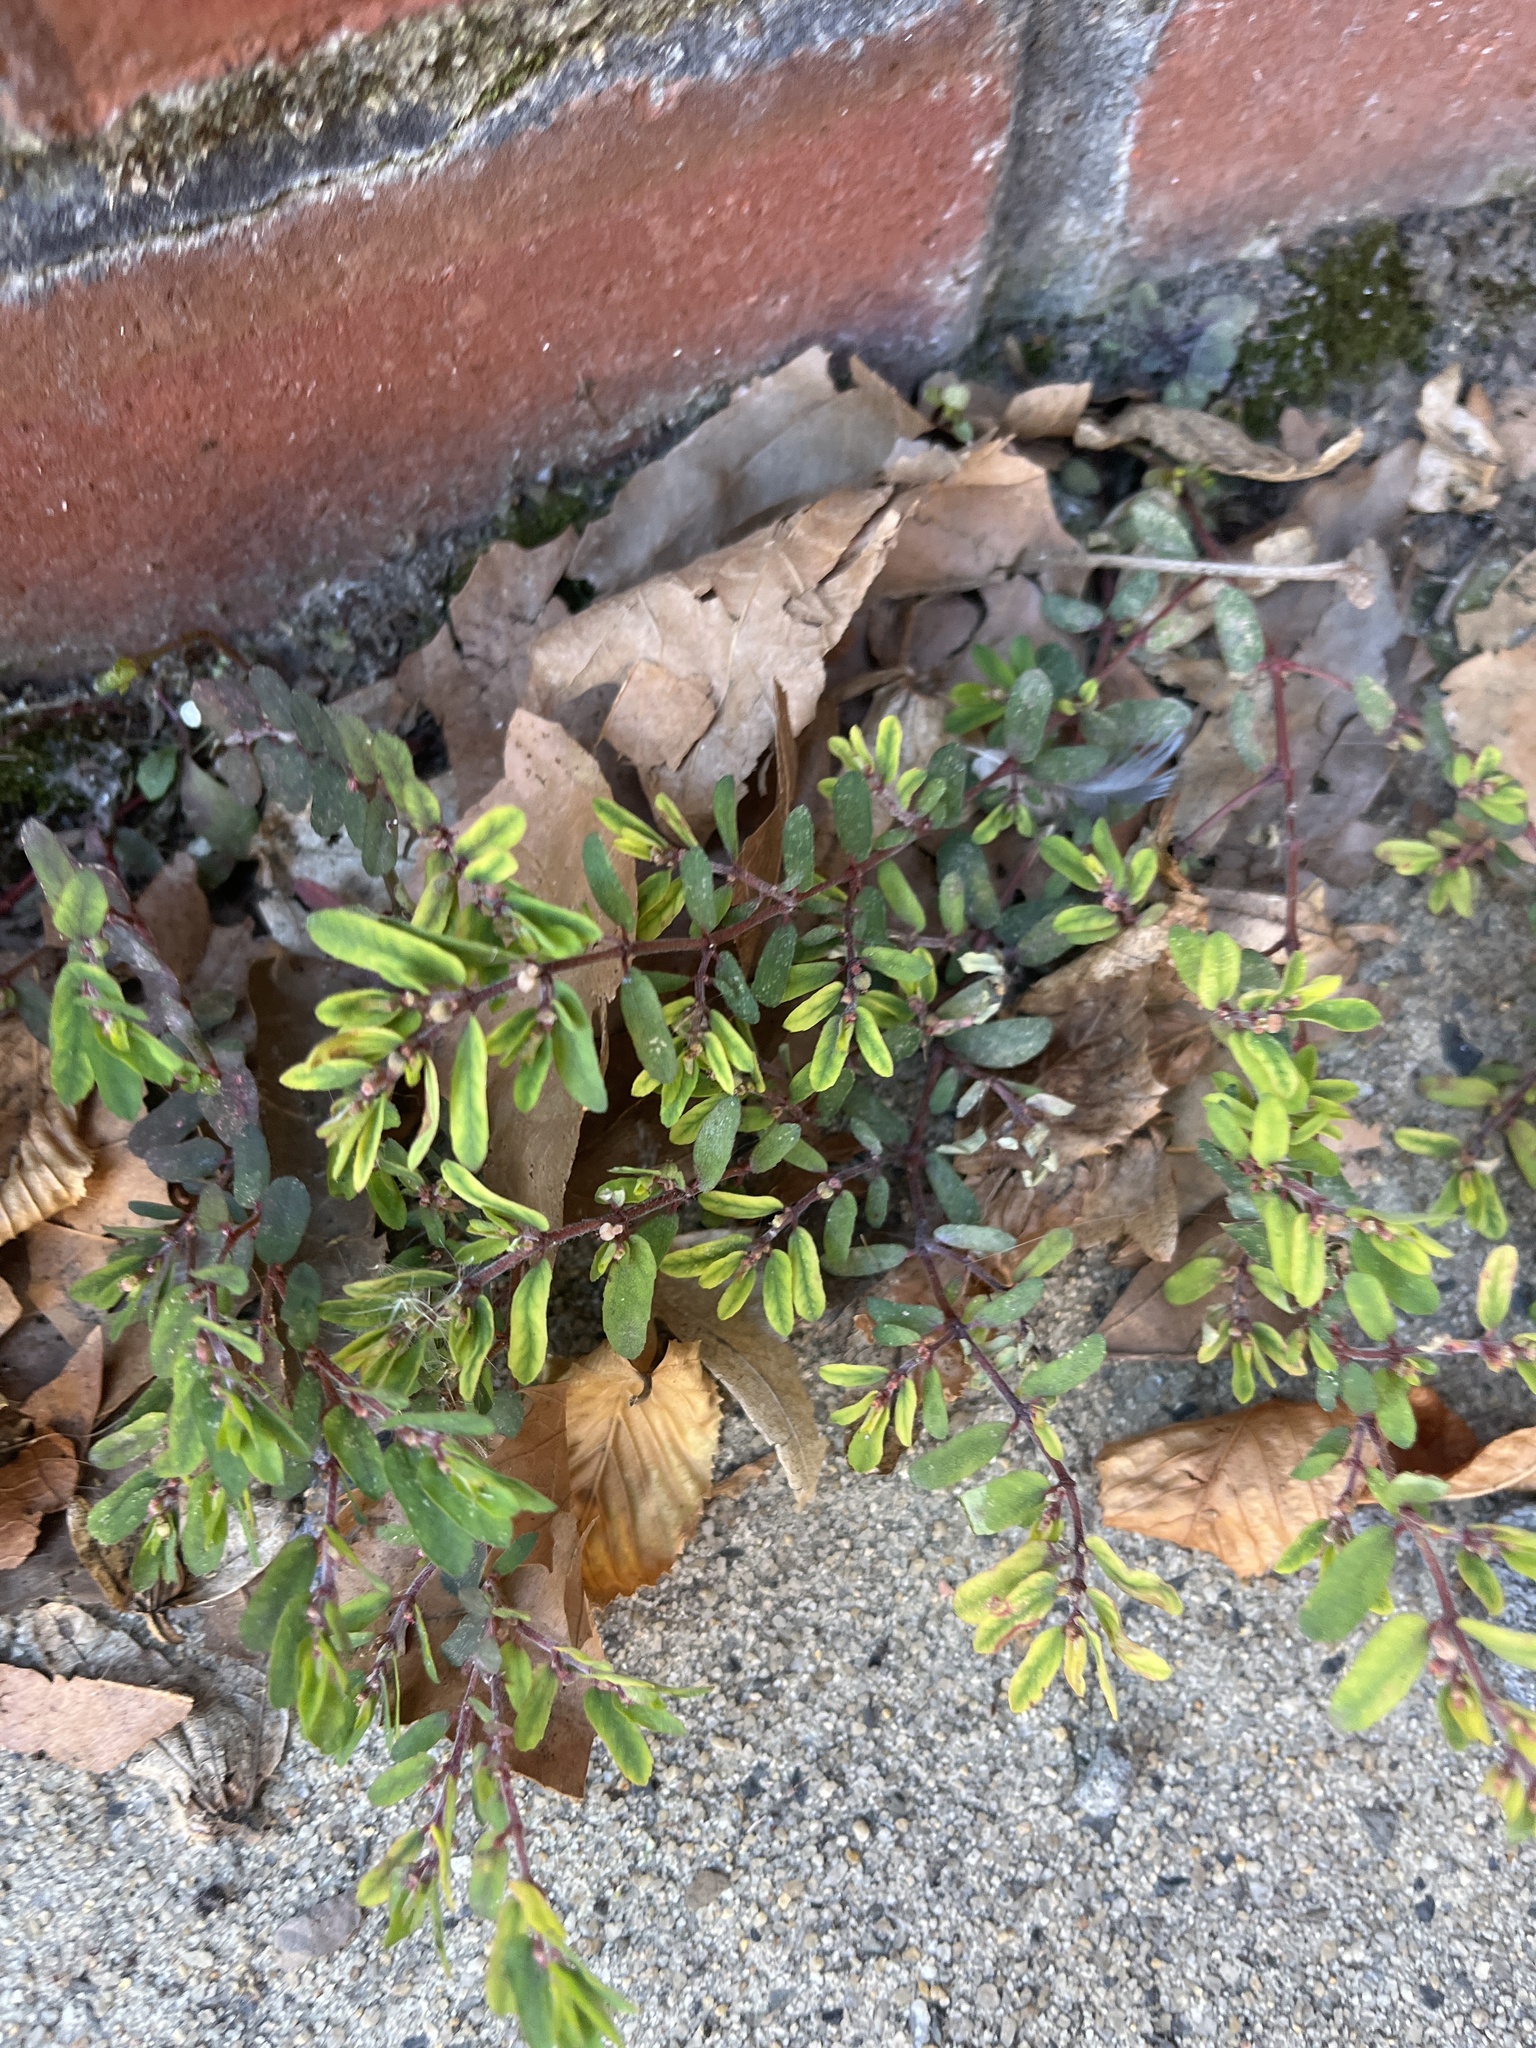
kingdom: Plantae
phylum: Tracheophyta
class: Magnoliopsida
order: Malpighiales
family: Euphorbiaceae
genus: Euphorbia
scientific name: Euphorbia maculata
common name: Spotted spurge
